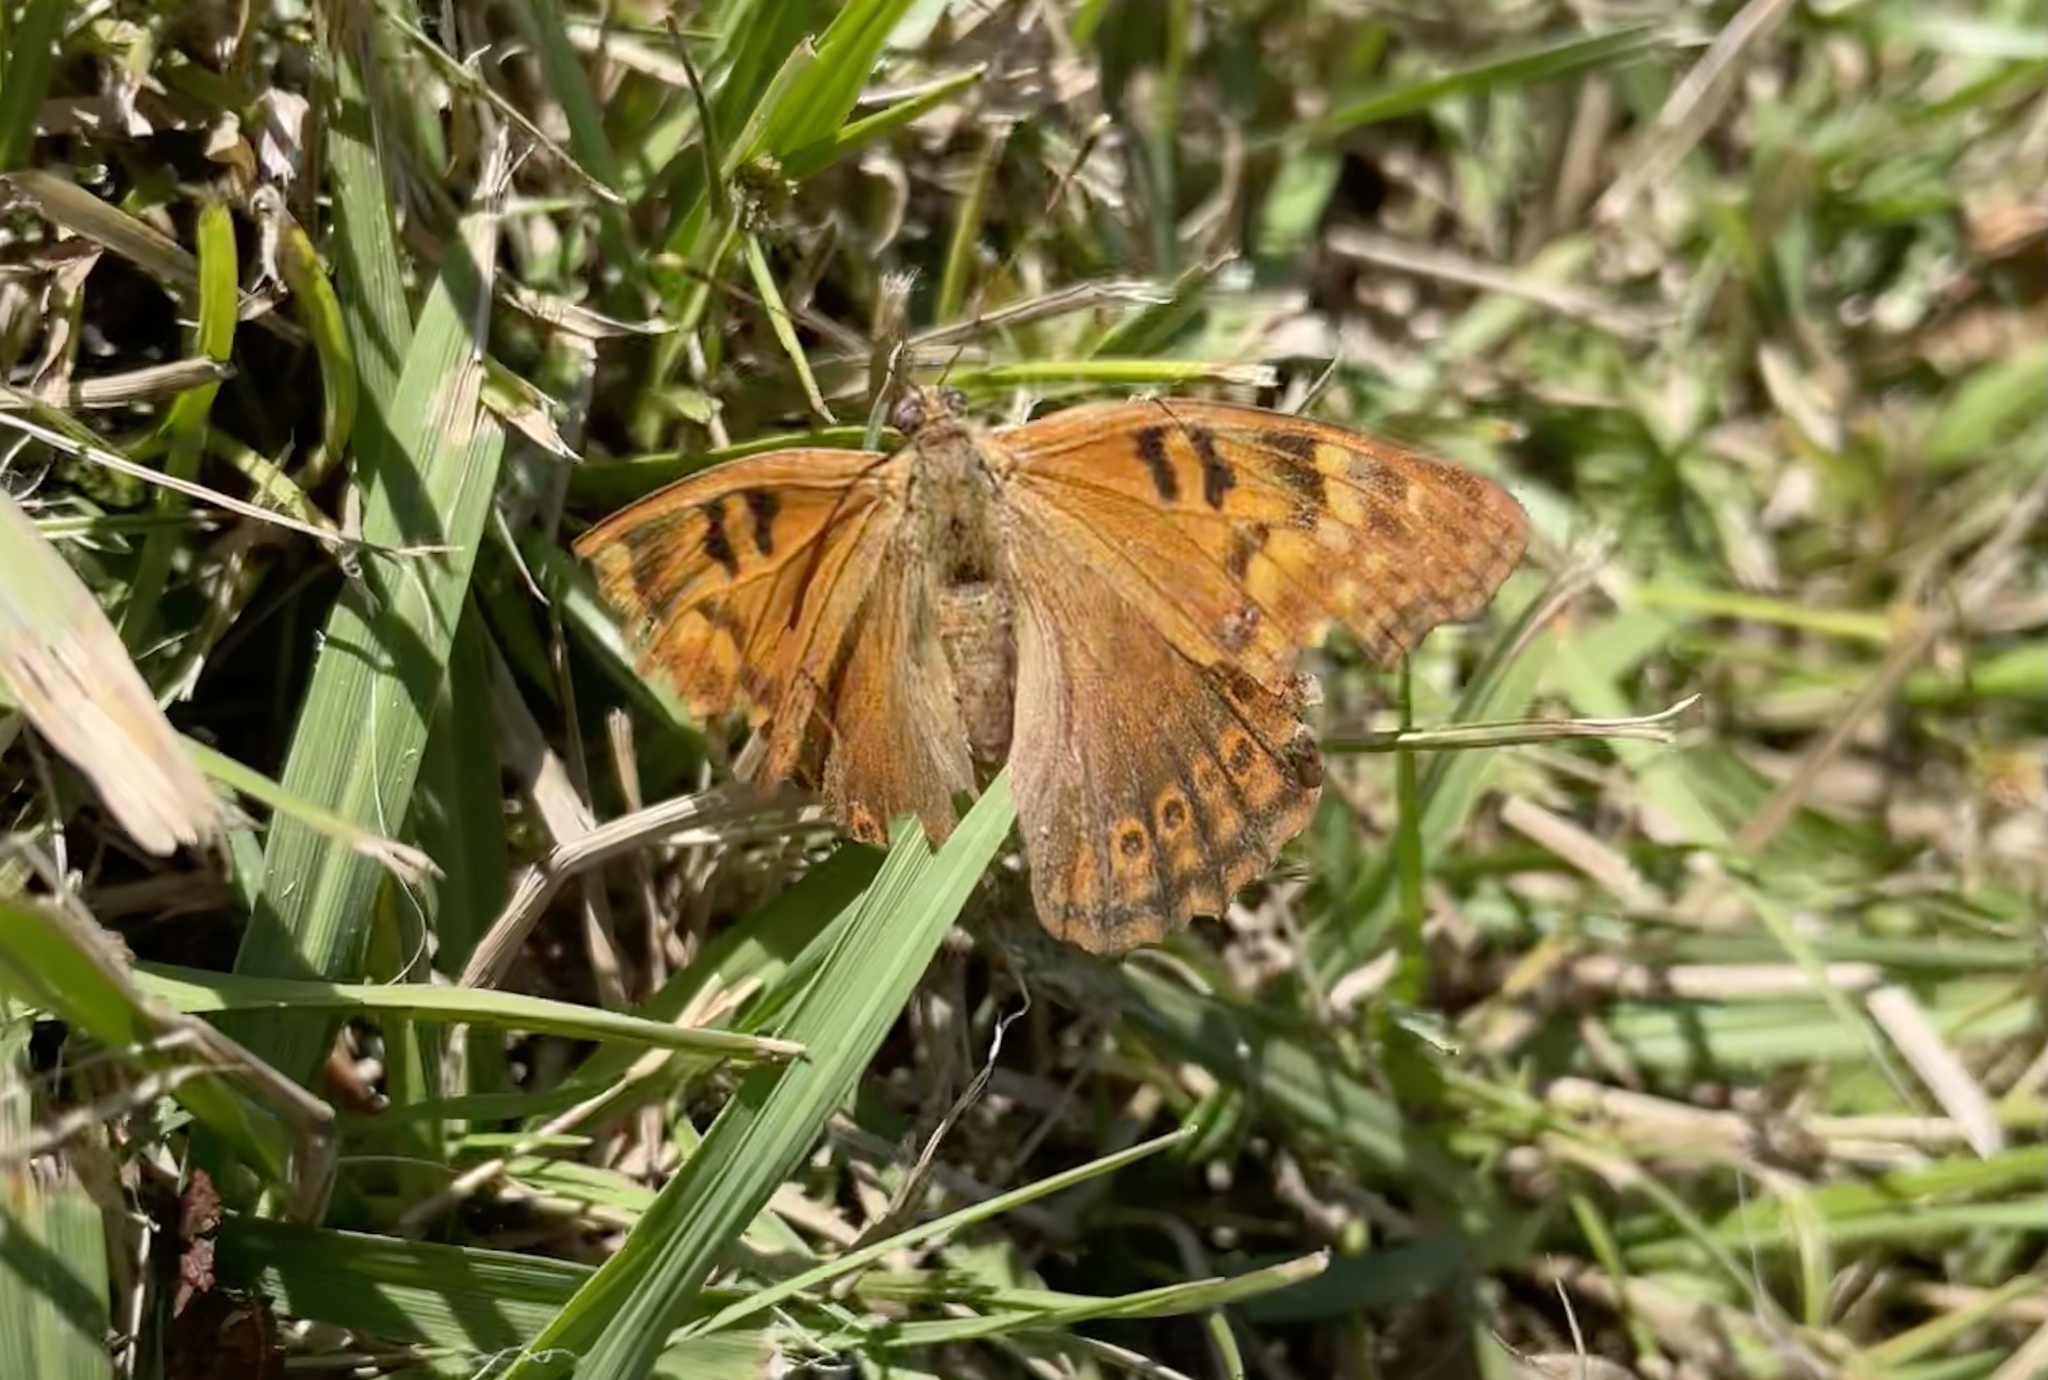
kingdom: Animalia
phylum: Arthropoda
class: Insecta
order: Lepidoptera
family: Nymphalidae
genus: Asterocampa
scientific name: Asterocampa clyton
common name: Tawny emperor
